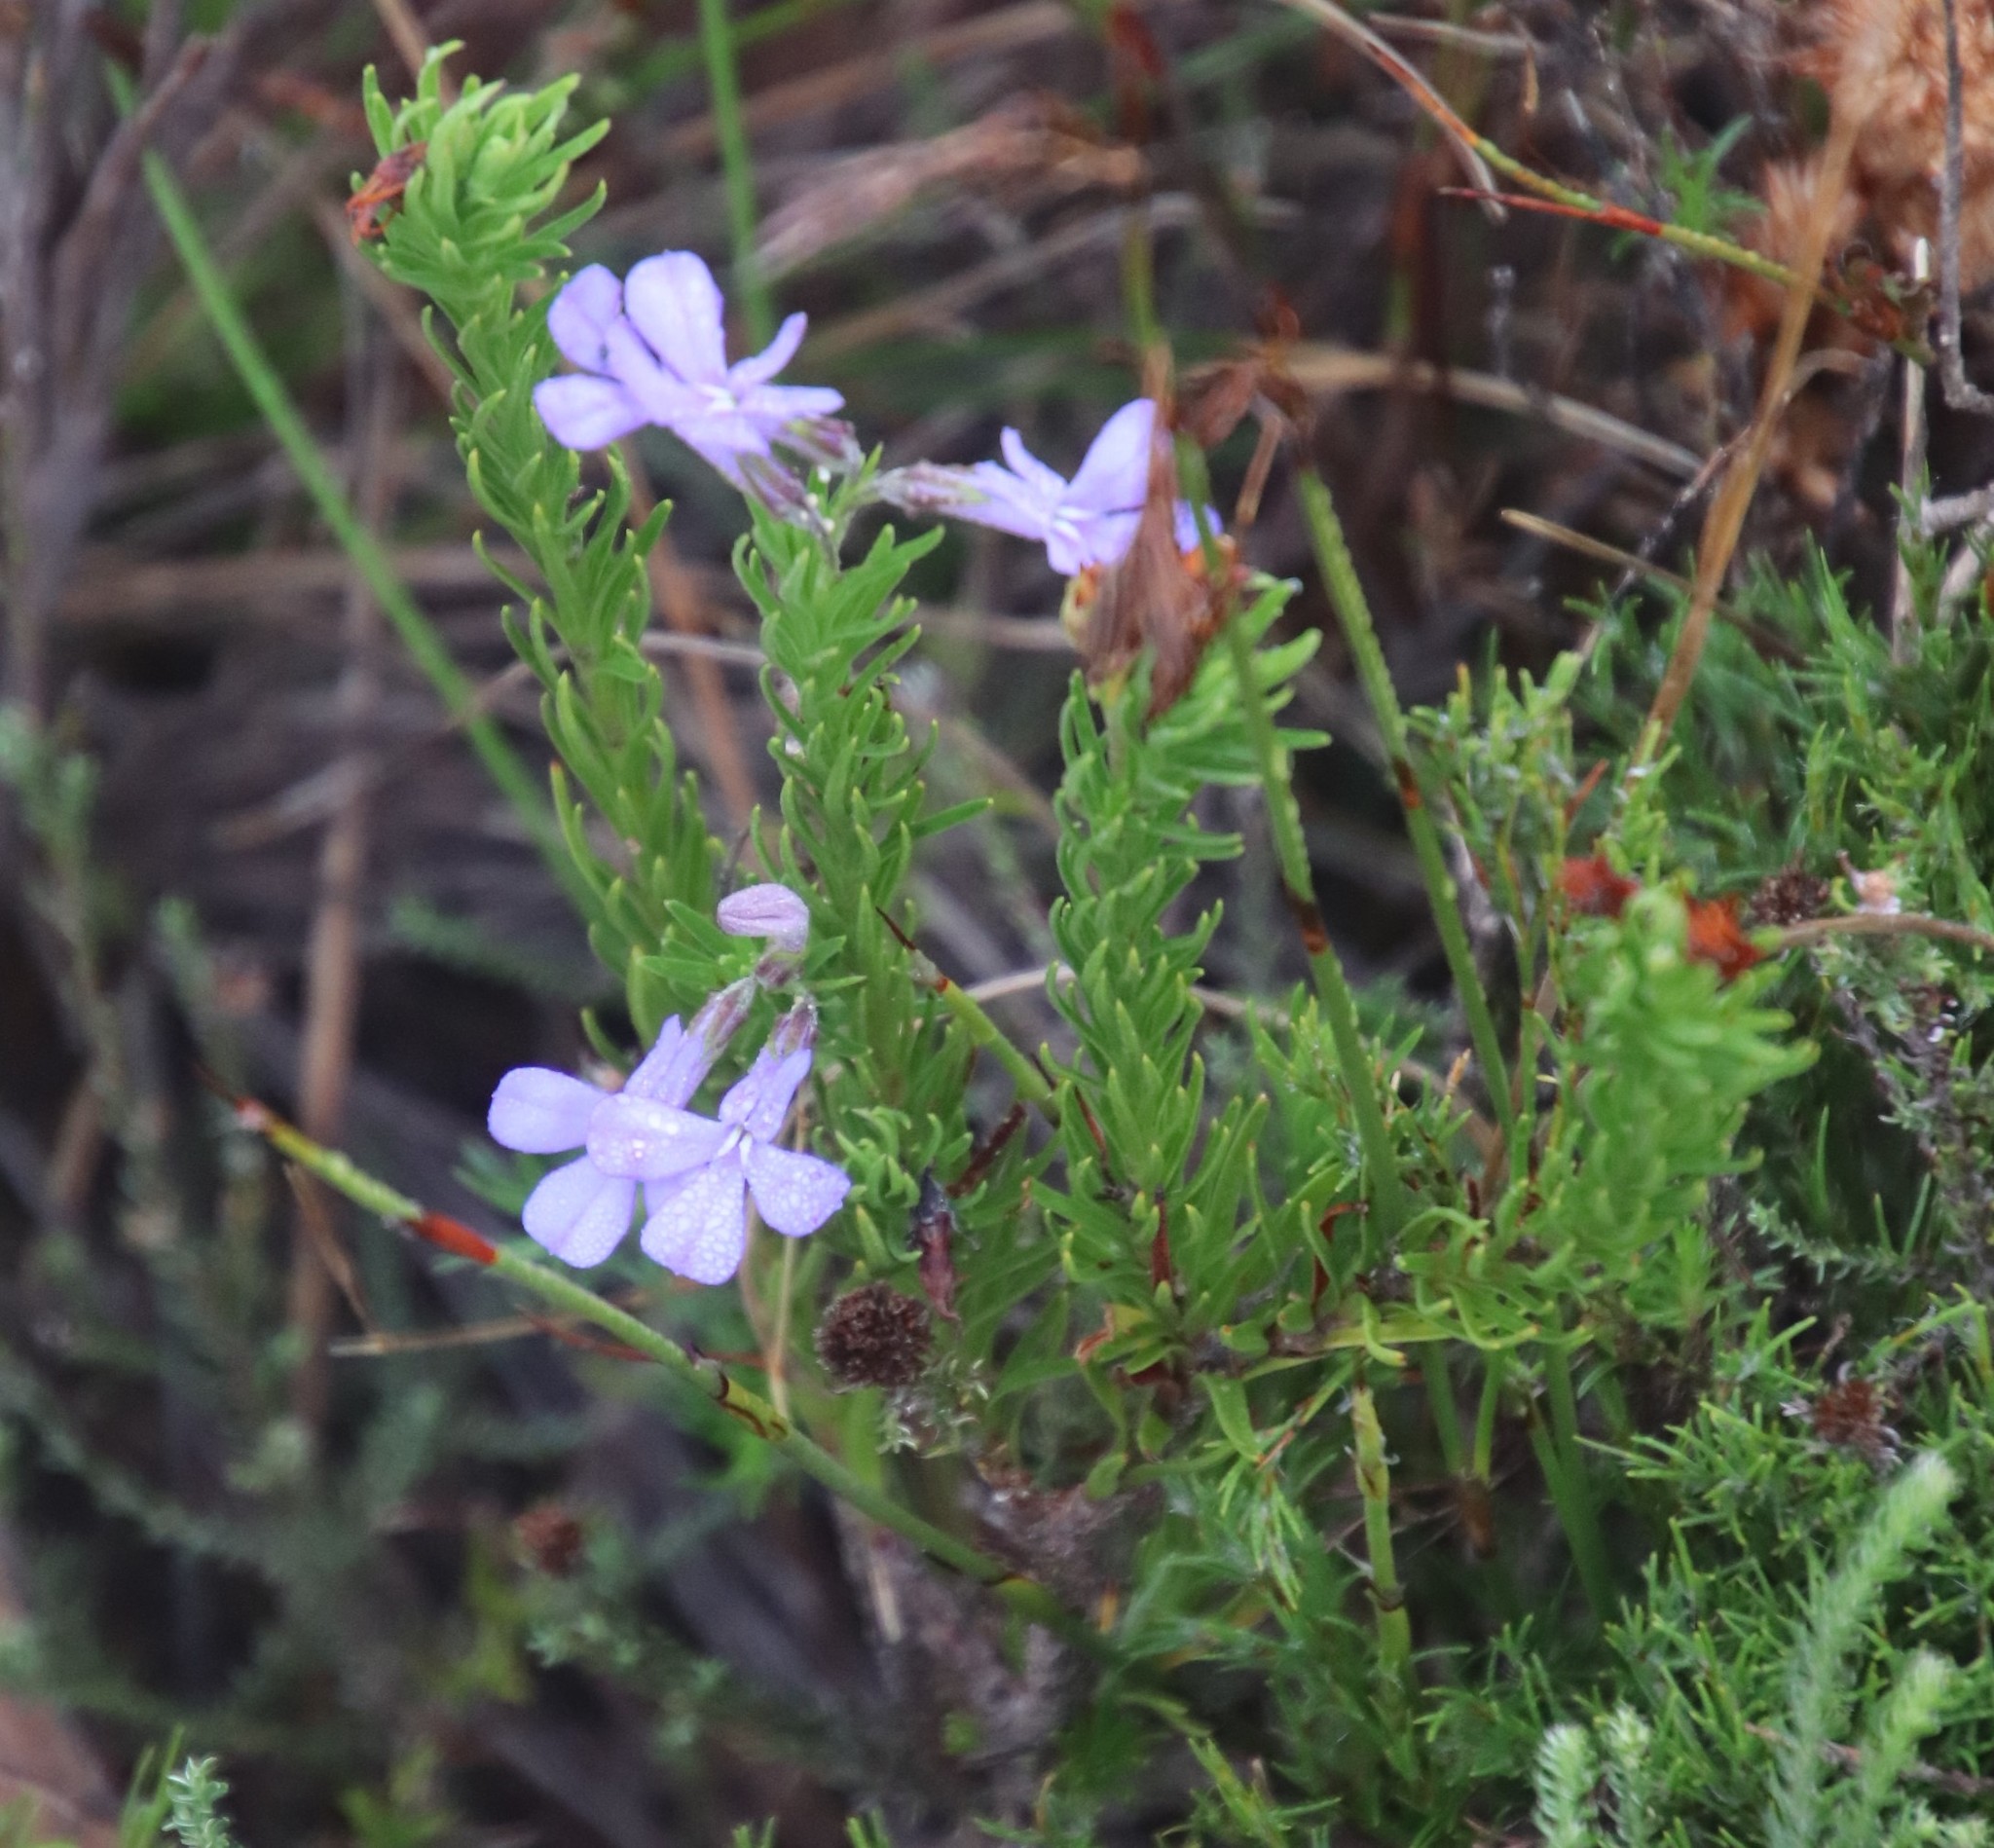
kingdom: Plantae
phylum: Tracheophyta
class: Magnoliopsida
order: Asterales
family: Campanulaceae
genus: Lobelia
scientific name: Lobelia pinifolia
